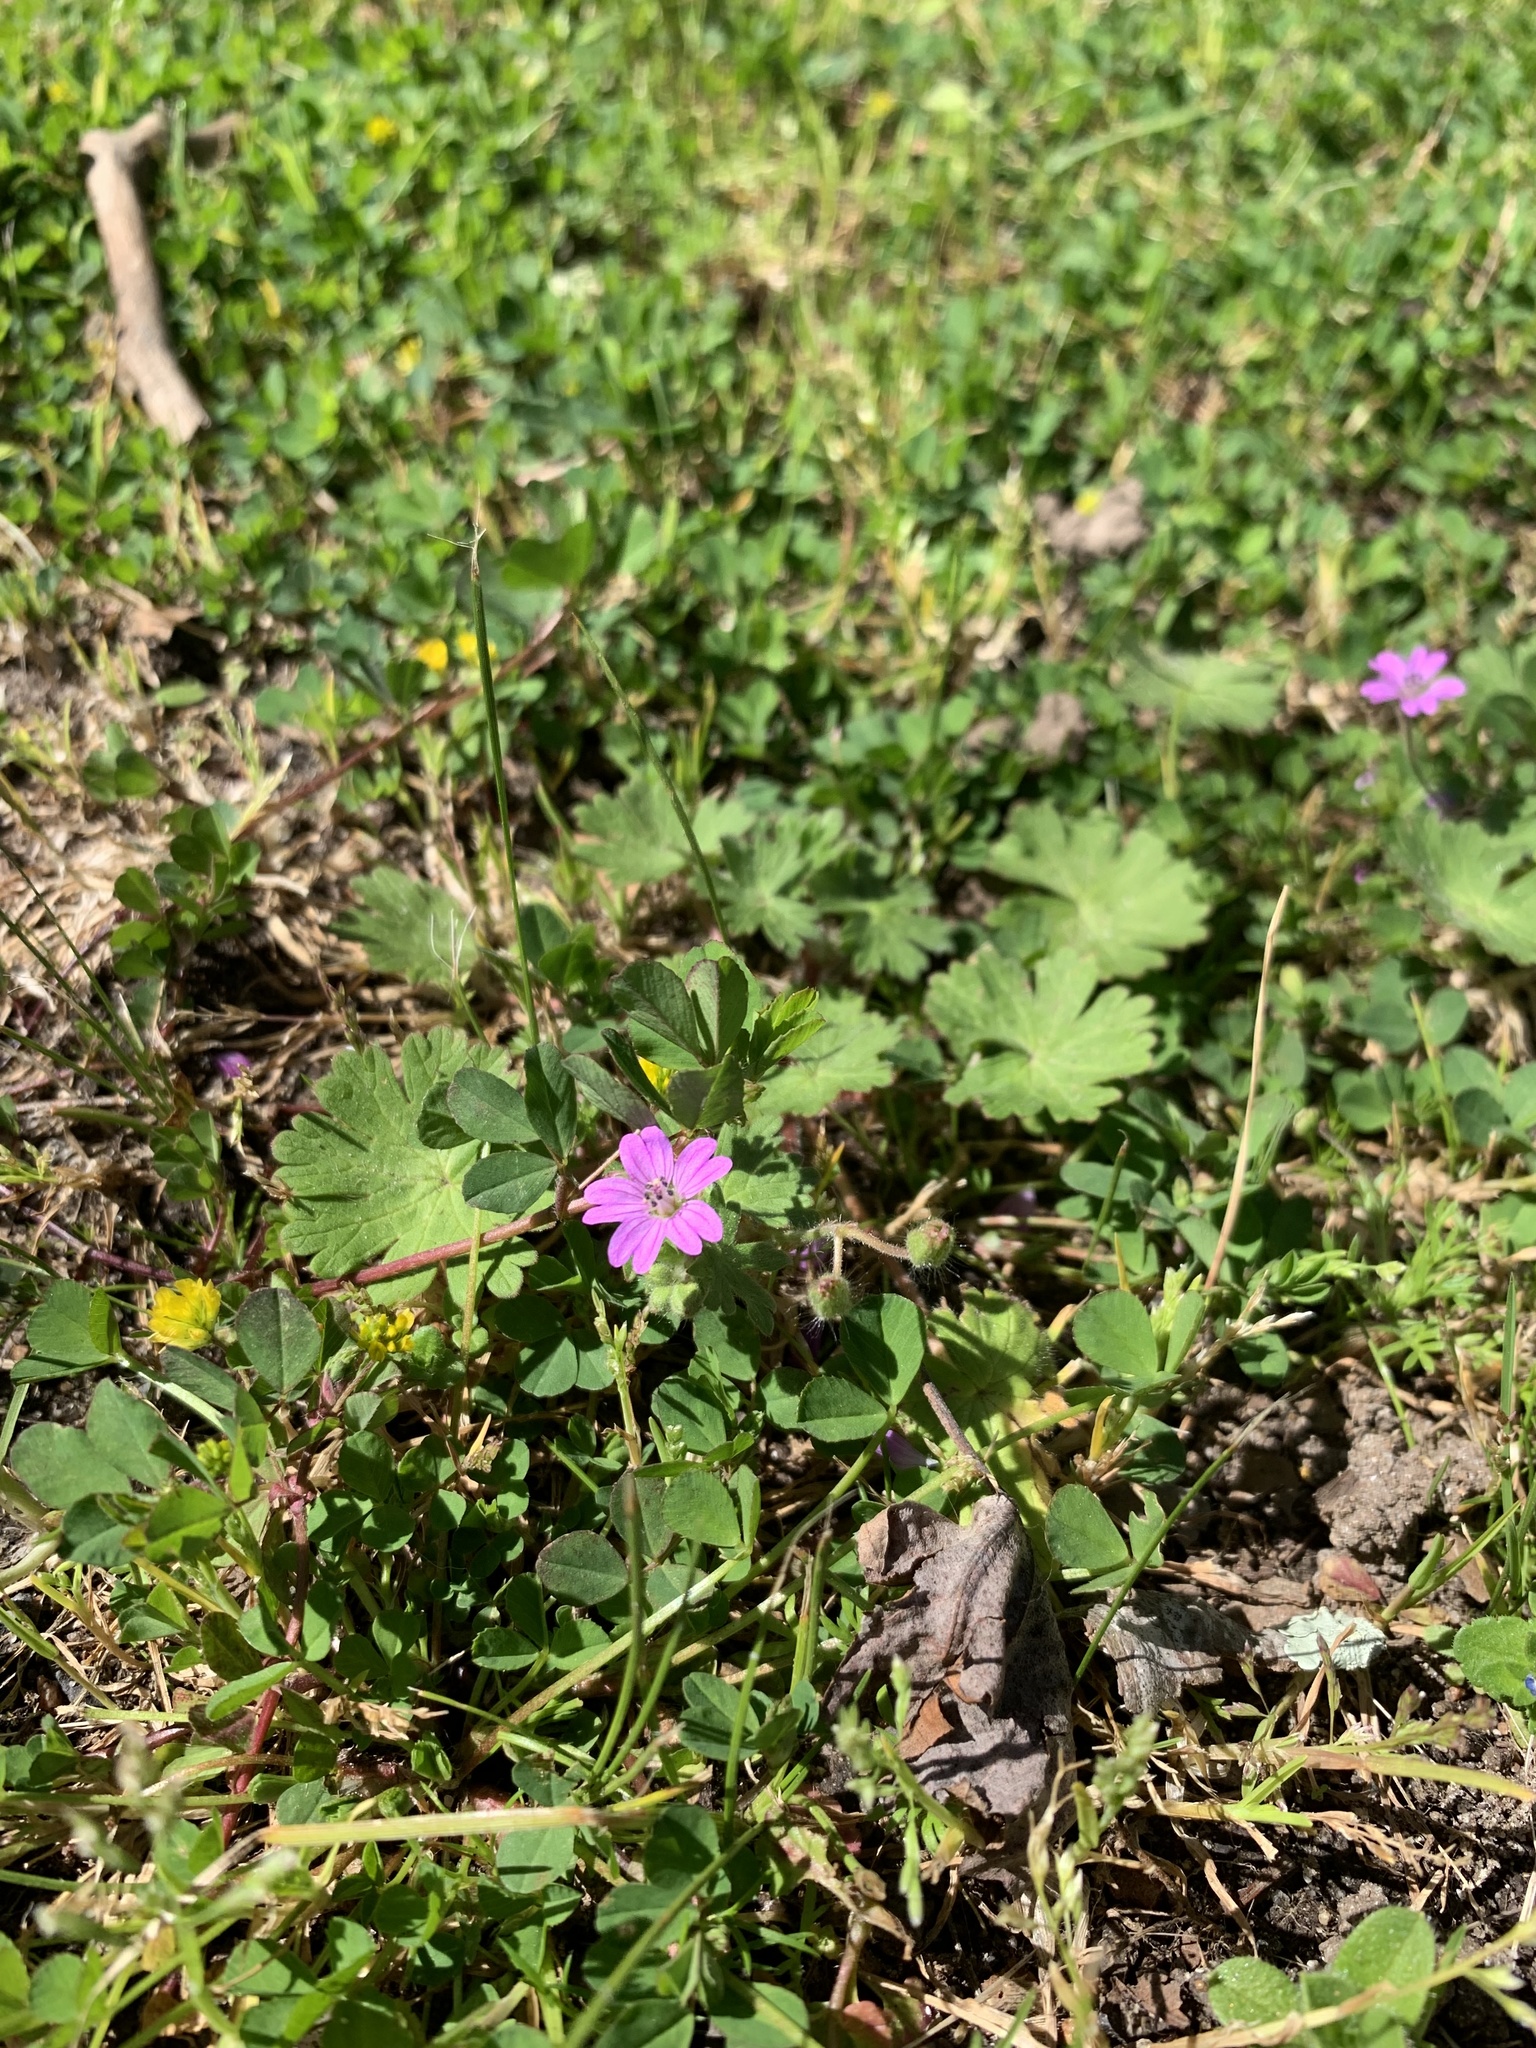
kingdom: Plantae
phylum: Tracheophyta
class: Magnoliopsida
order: Geraniales
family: Geraniaceae
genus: Geranium
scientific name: Geranium molle
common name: Dove's-foot crane's-bill
